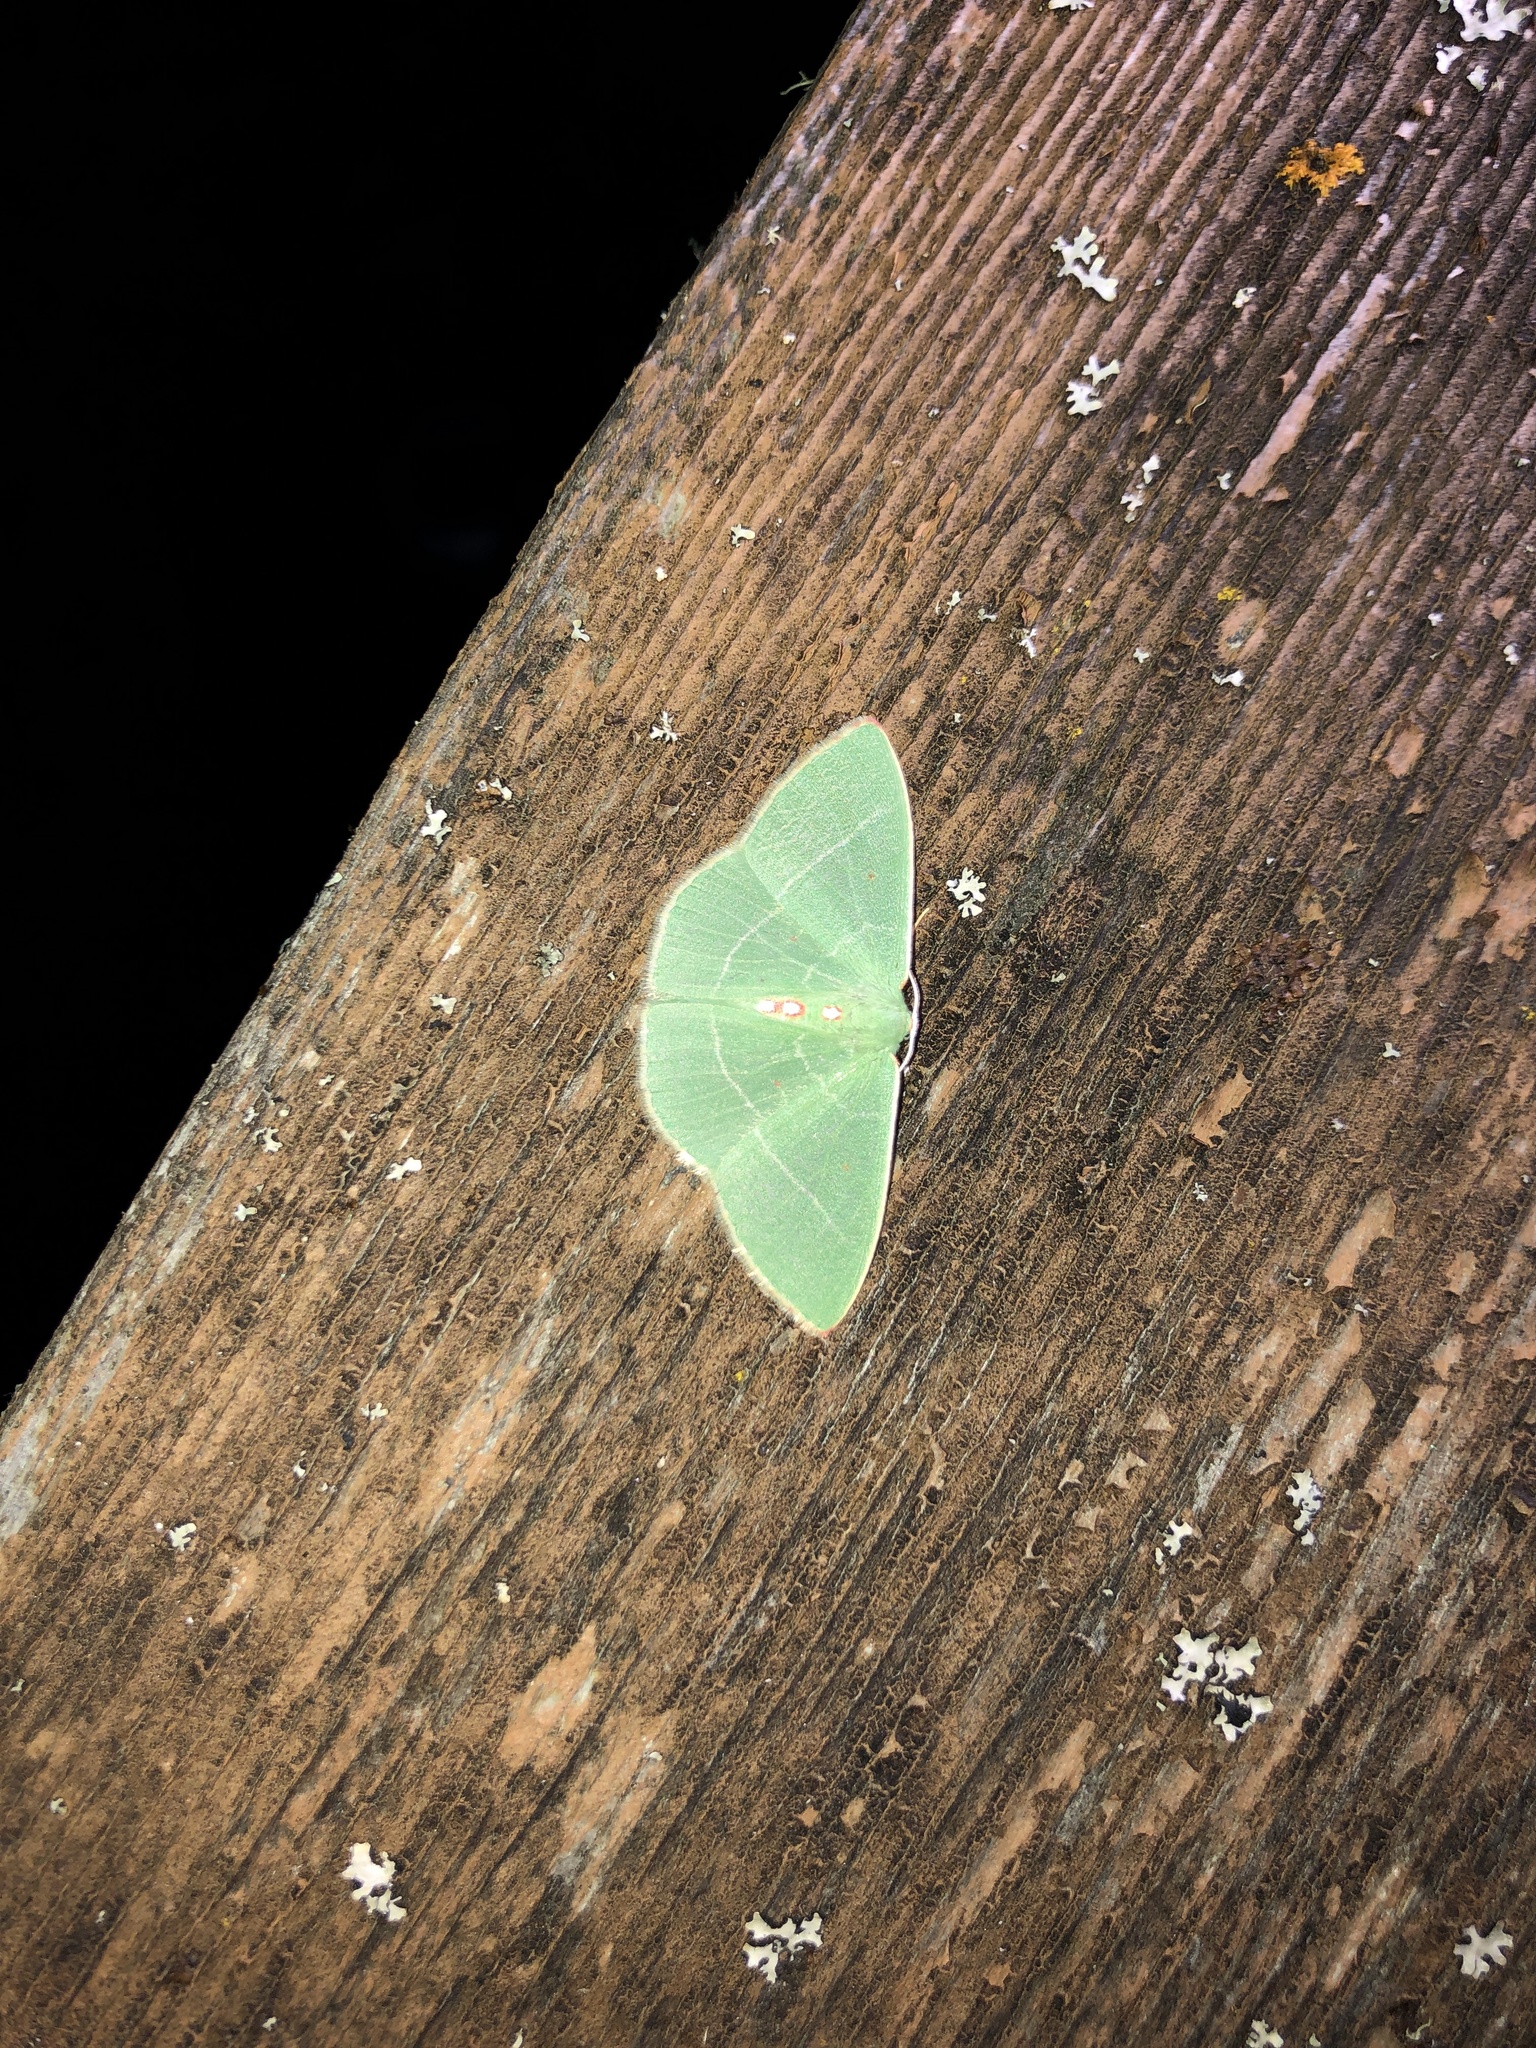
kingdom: Animalia
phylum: Arthropoda
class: Insecta
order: Lepidoptera
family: Geometridae
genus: Nemoria
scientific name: Nemoria darwiniata
